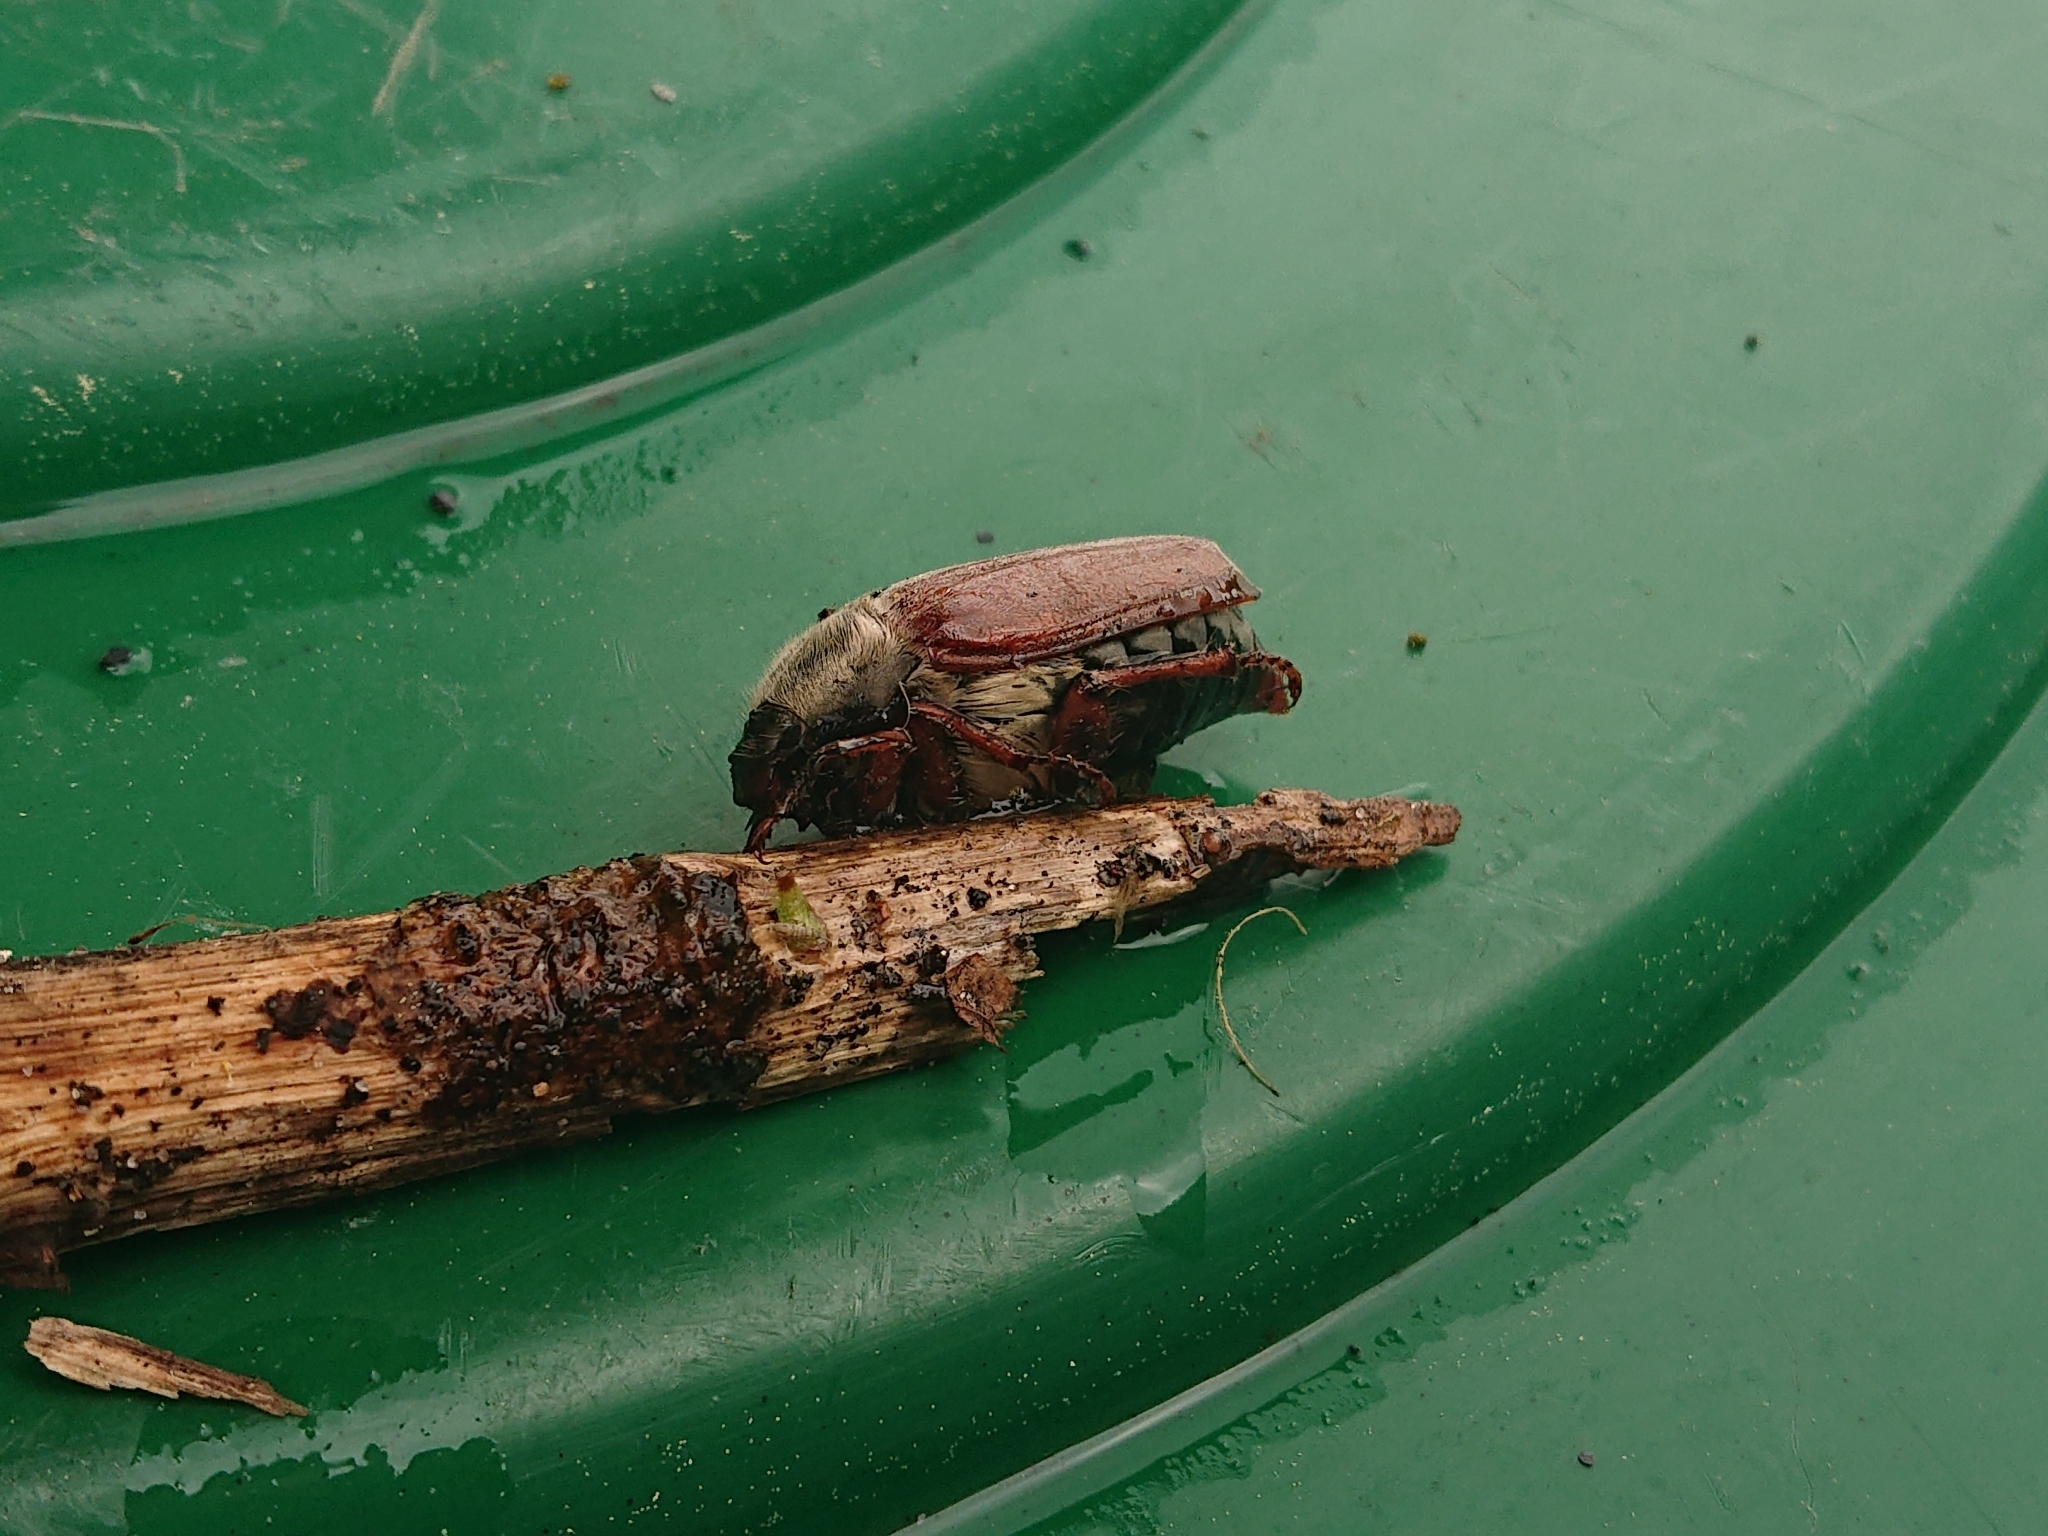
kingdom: Animalia
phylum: Arthropoda
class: Insecta
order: Coleoptera
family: Scarabaeidae
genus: Melolontha
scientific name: Melolontha melolontha
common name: Cockchafer maybeetle
